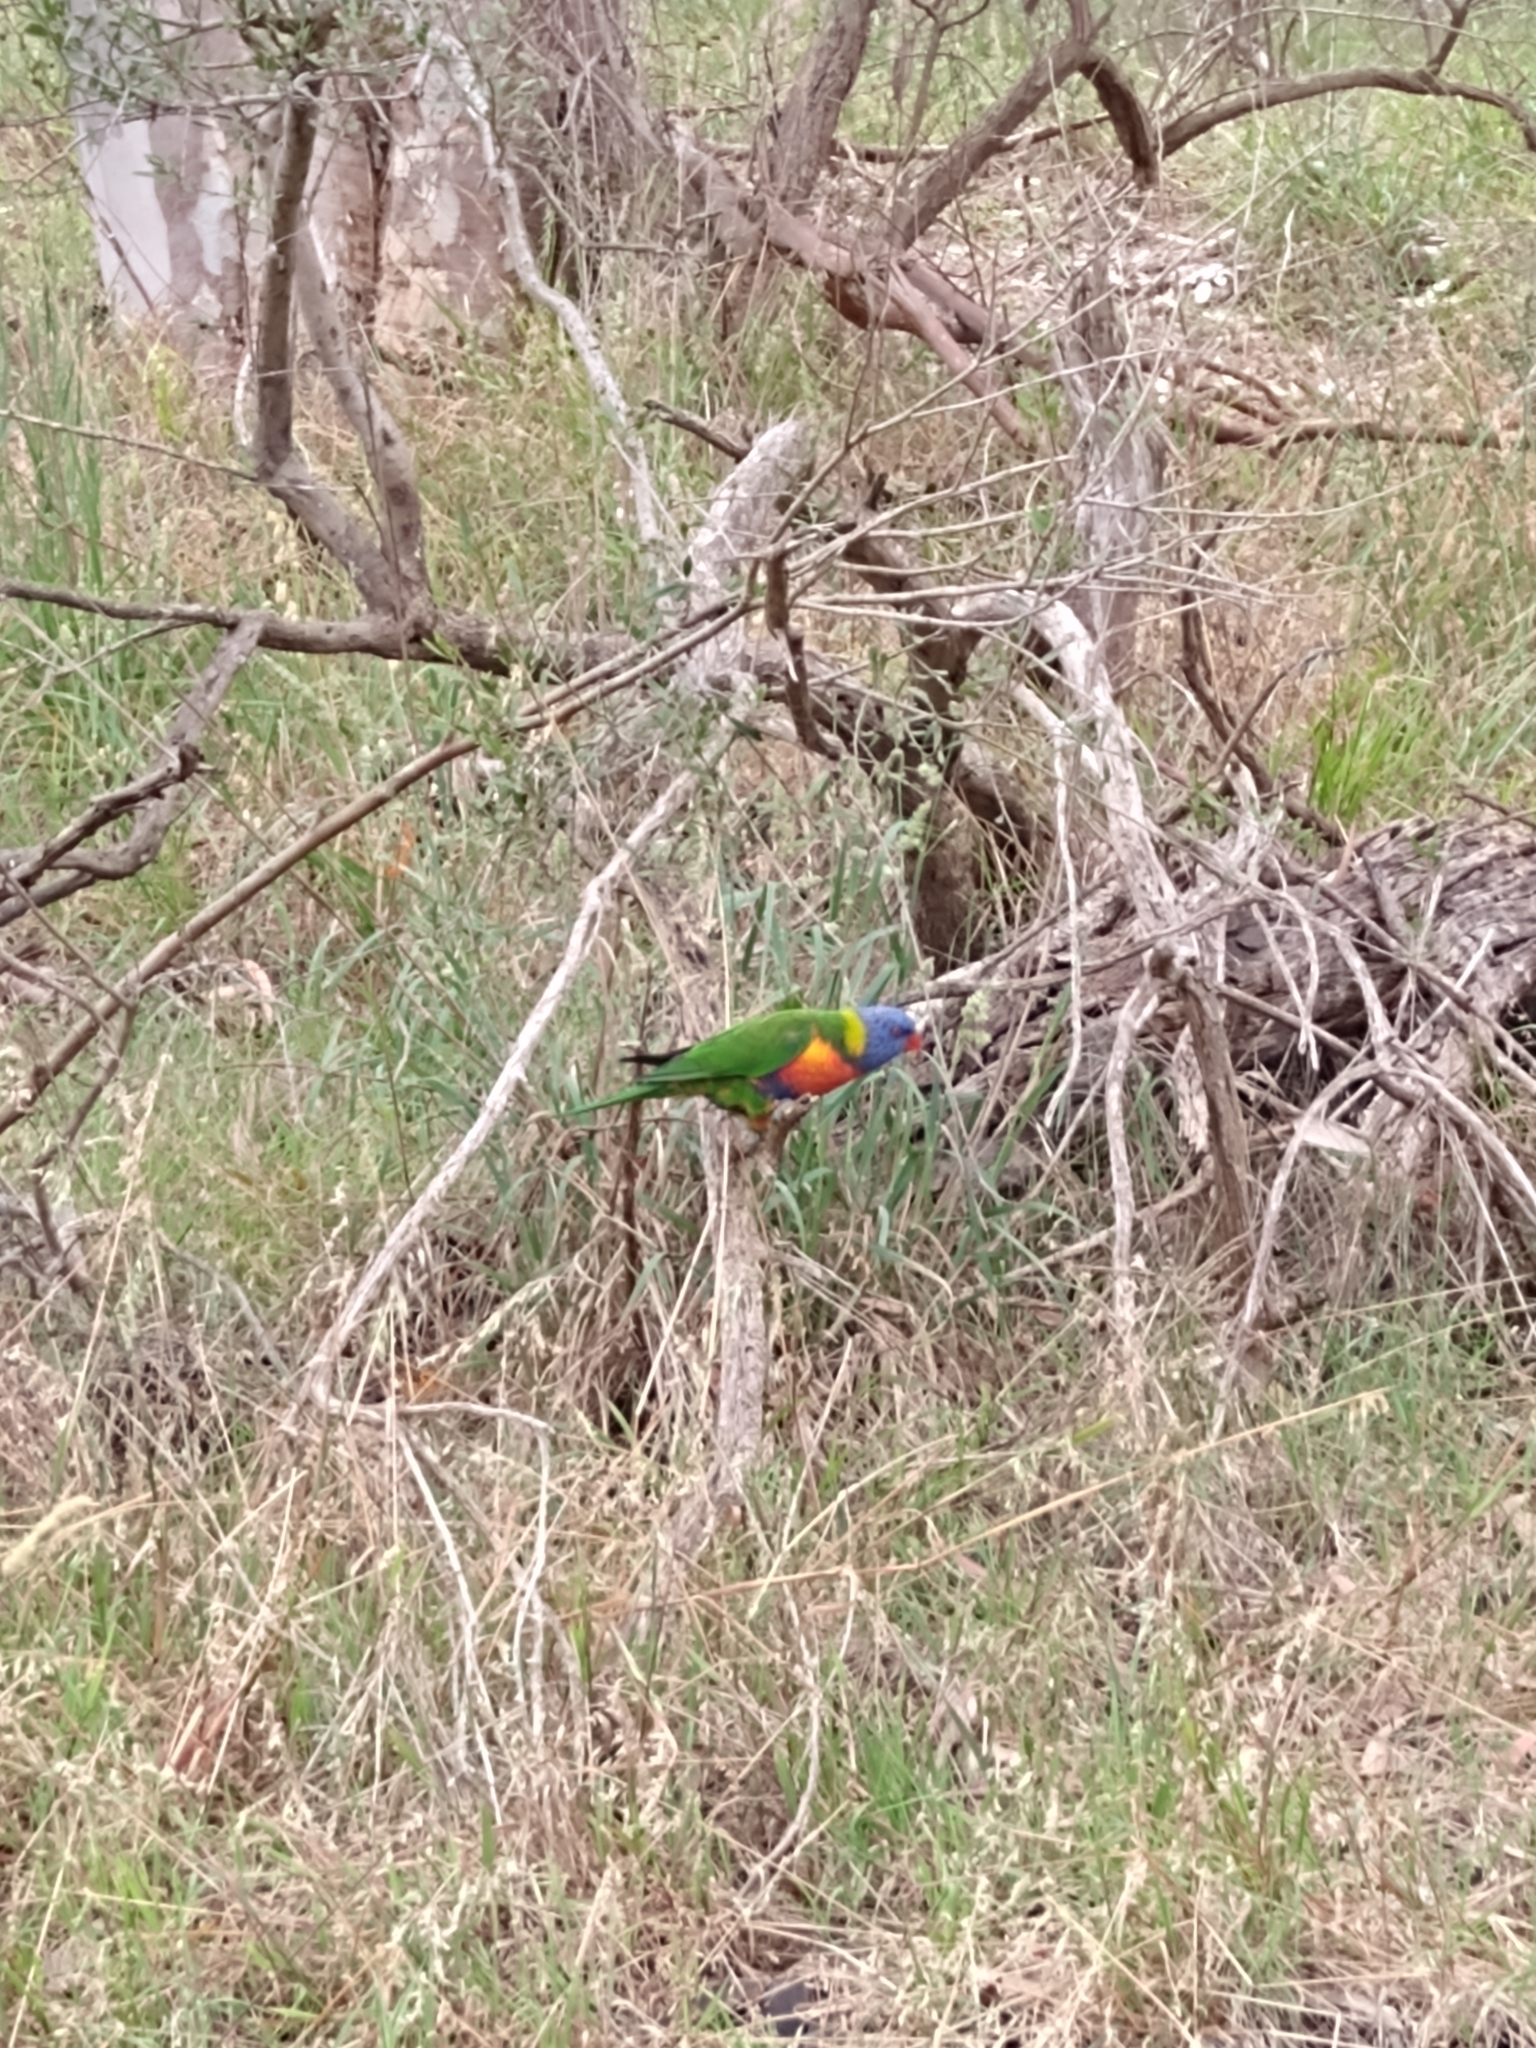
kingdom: Animalia
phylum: Chordata
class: Aves
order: Psittaciformes
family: Psittacidae
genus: Trichoglossus
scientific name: Trichoglossus haematodus
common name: Coconut lorikeet
